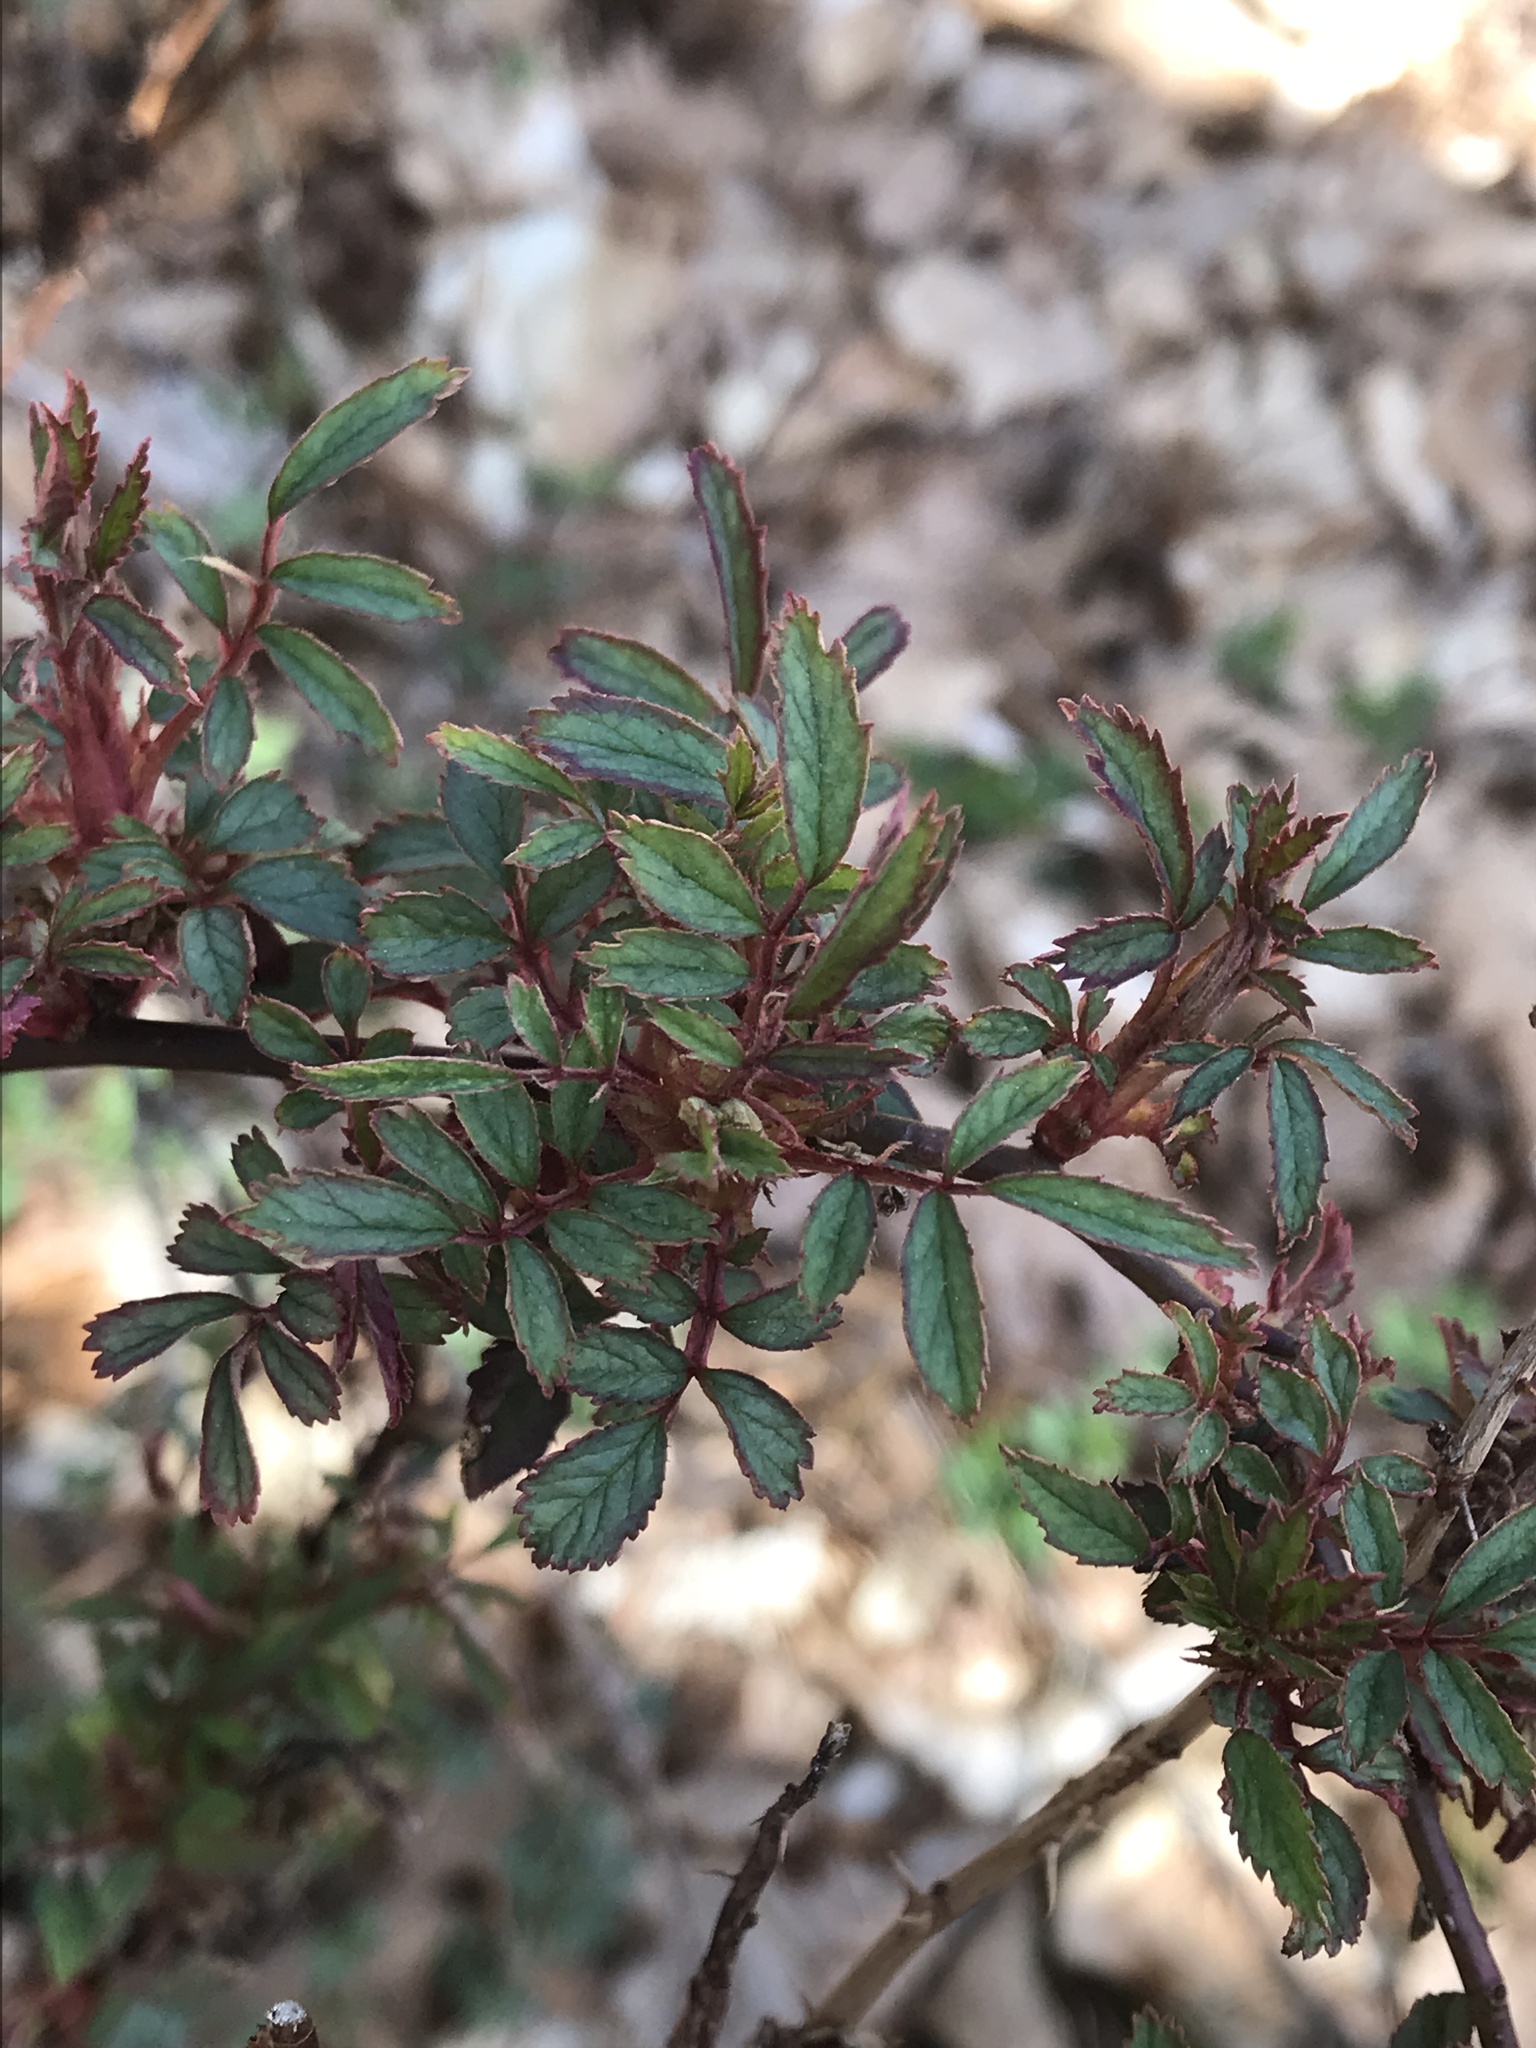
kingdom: Plantae
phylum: Tracheophyta
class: Magnoliopsida
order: Rosales
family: Rosaceae
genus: Rosa
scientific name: Rosa multiflora
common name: Multiflora rose
